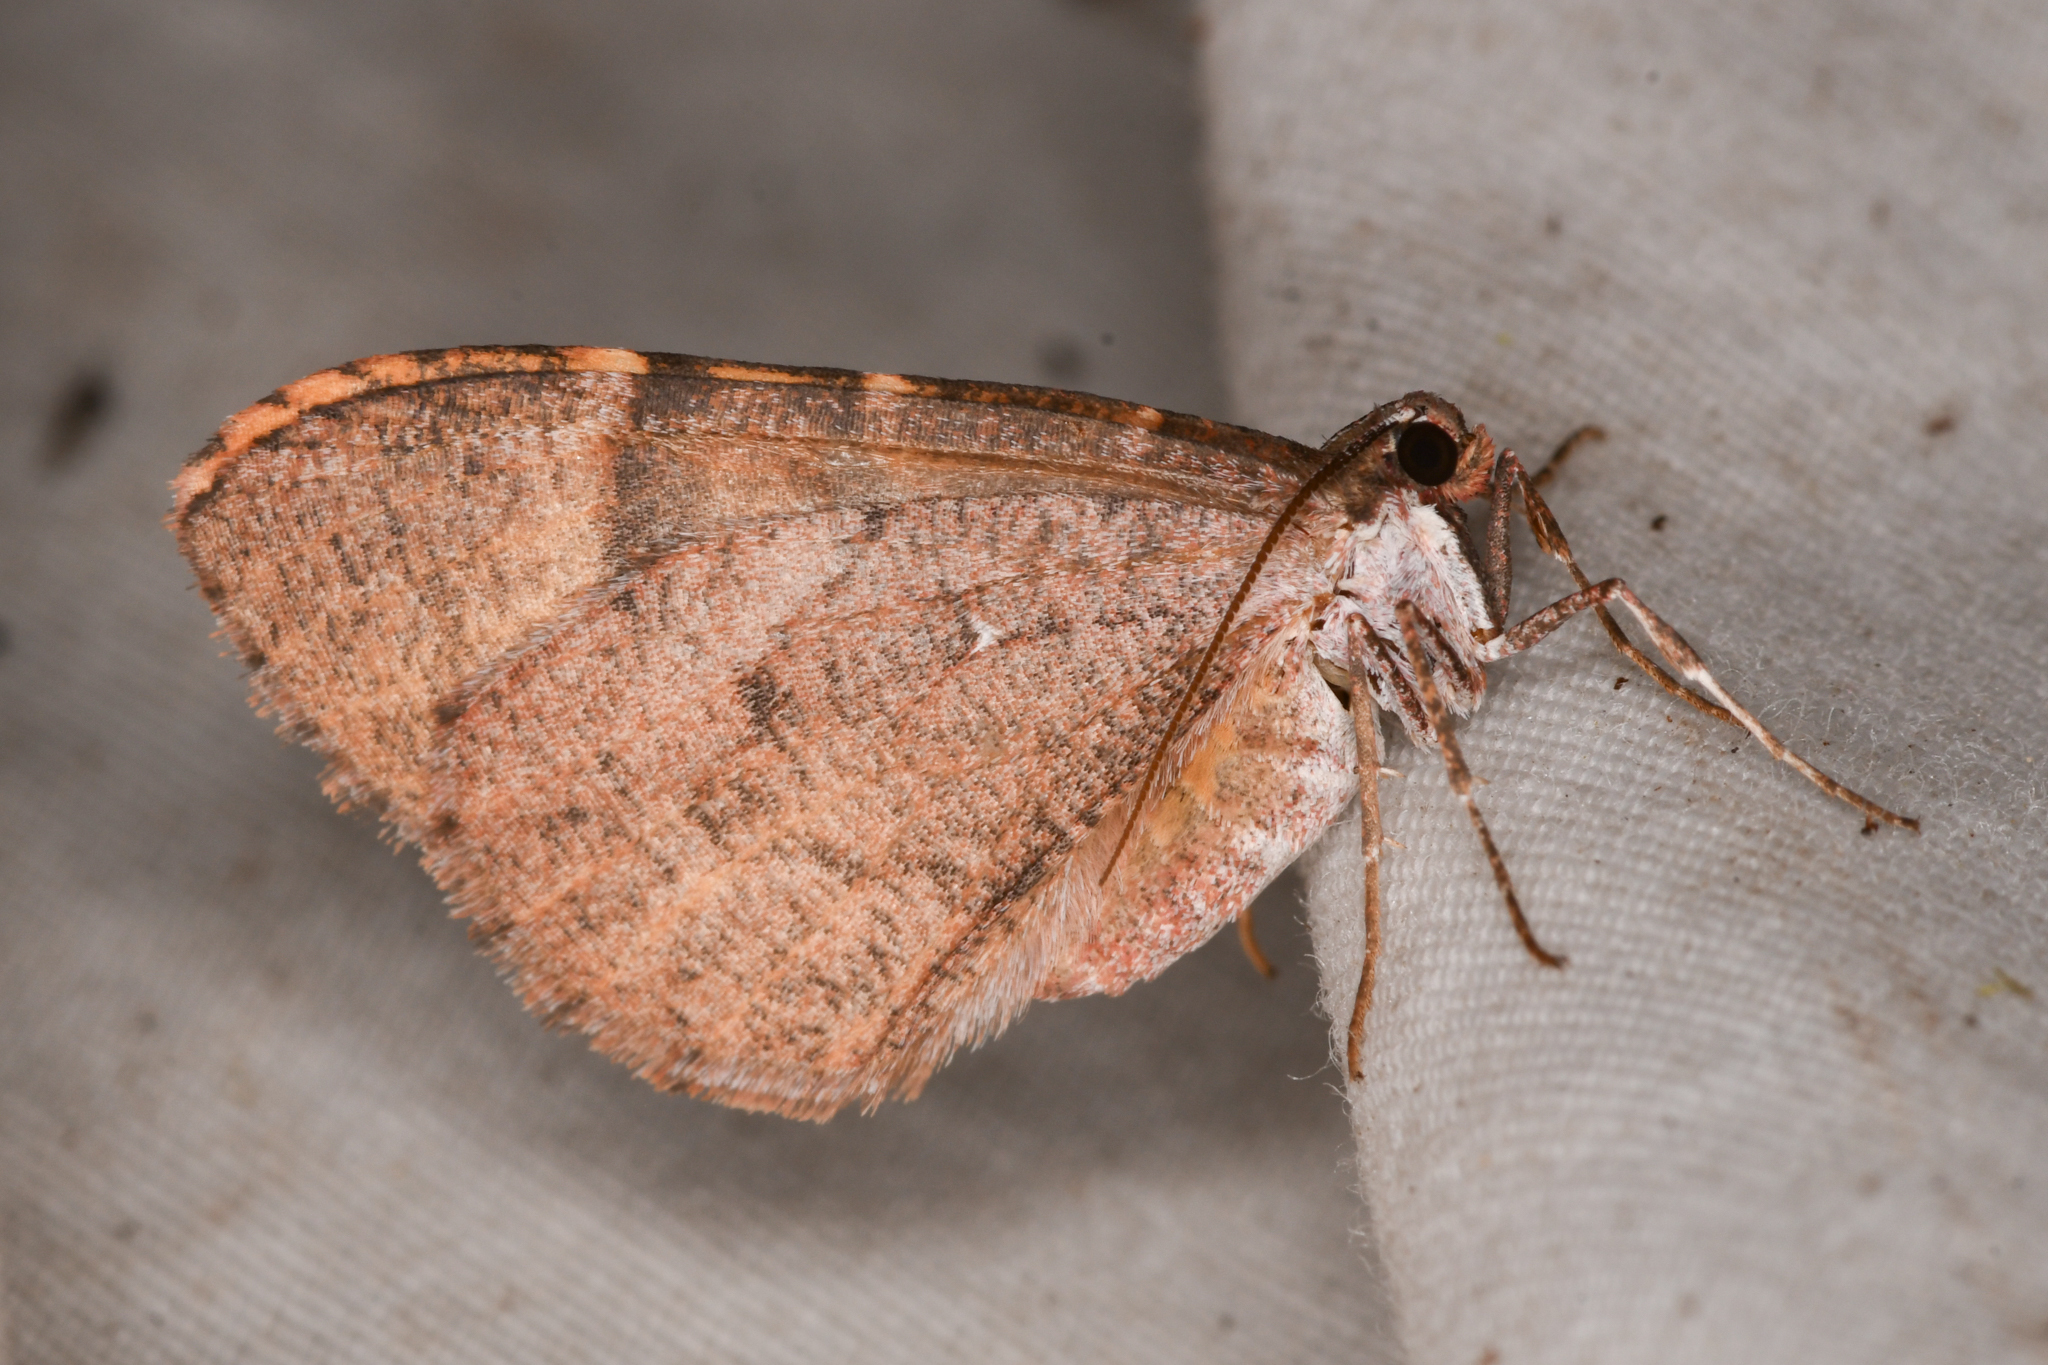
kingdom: Animalia
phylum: Arthropoda
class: Insecta
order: Lepidoptera
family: Geometridae
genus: Erannis
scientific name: Erannis vancouverensis
